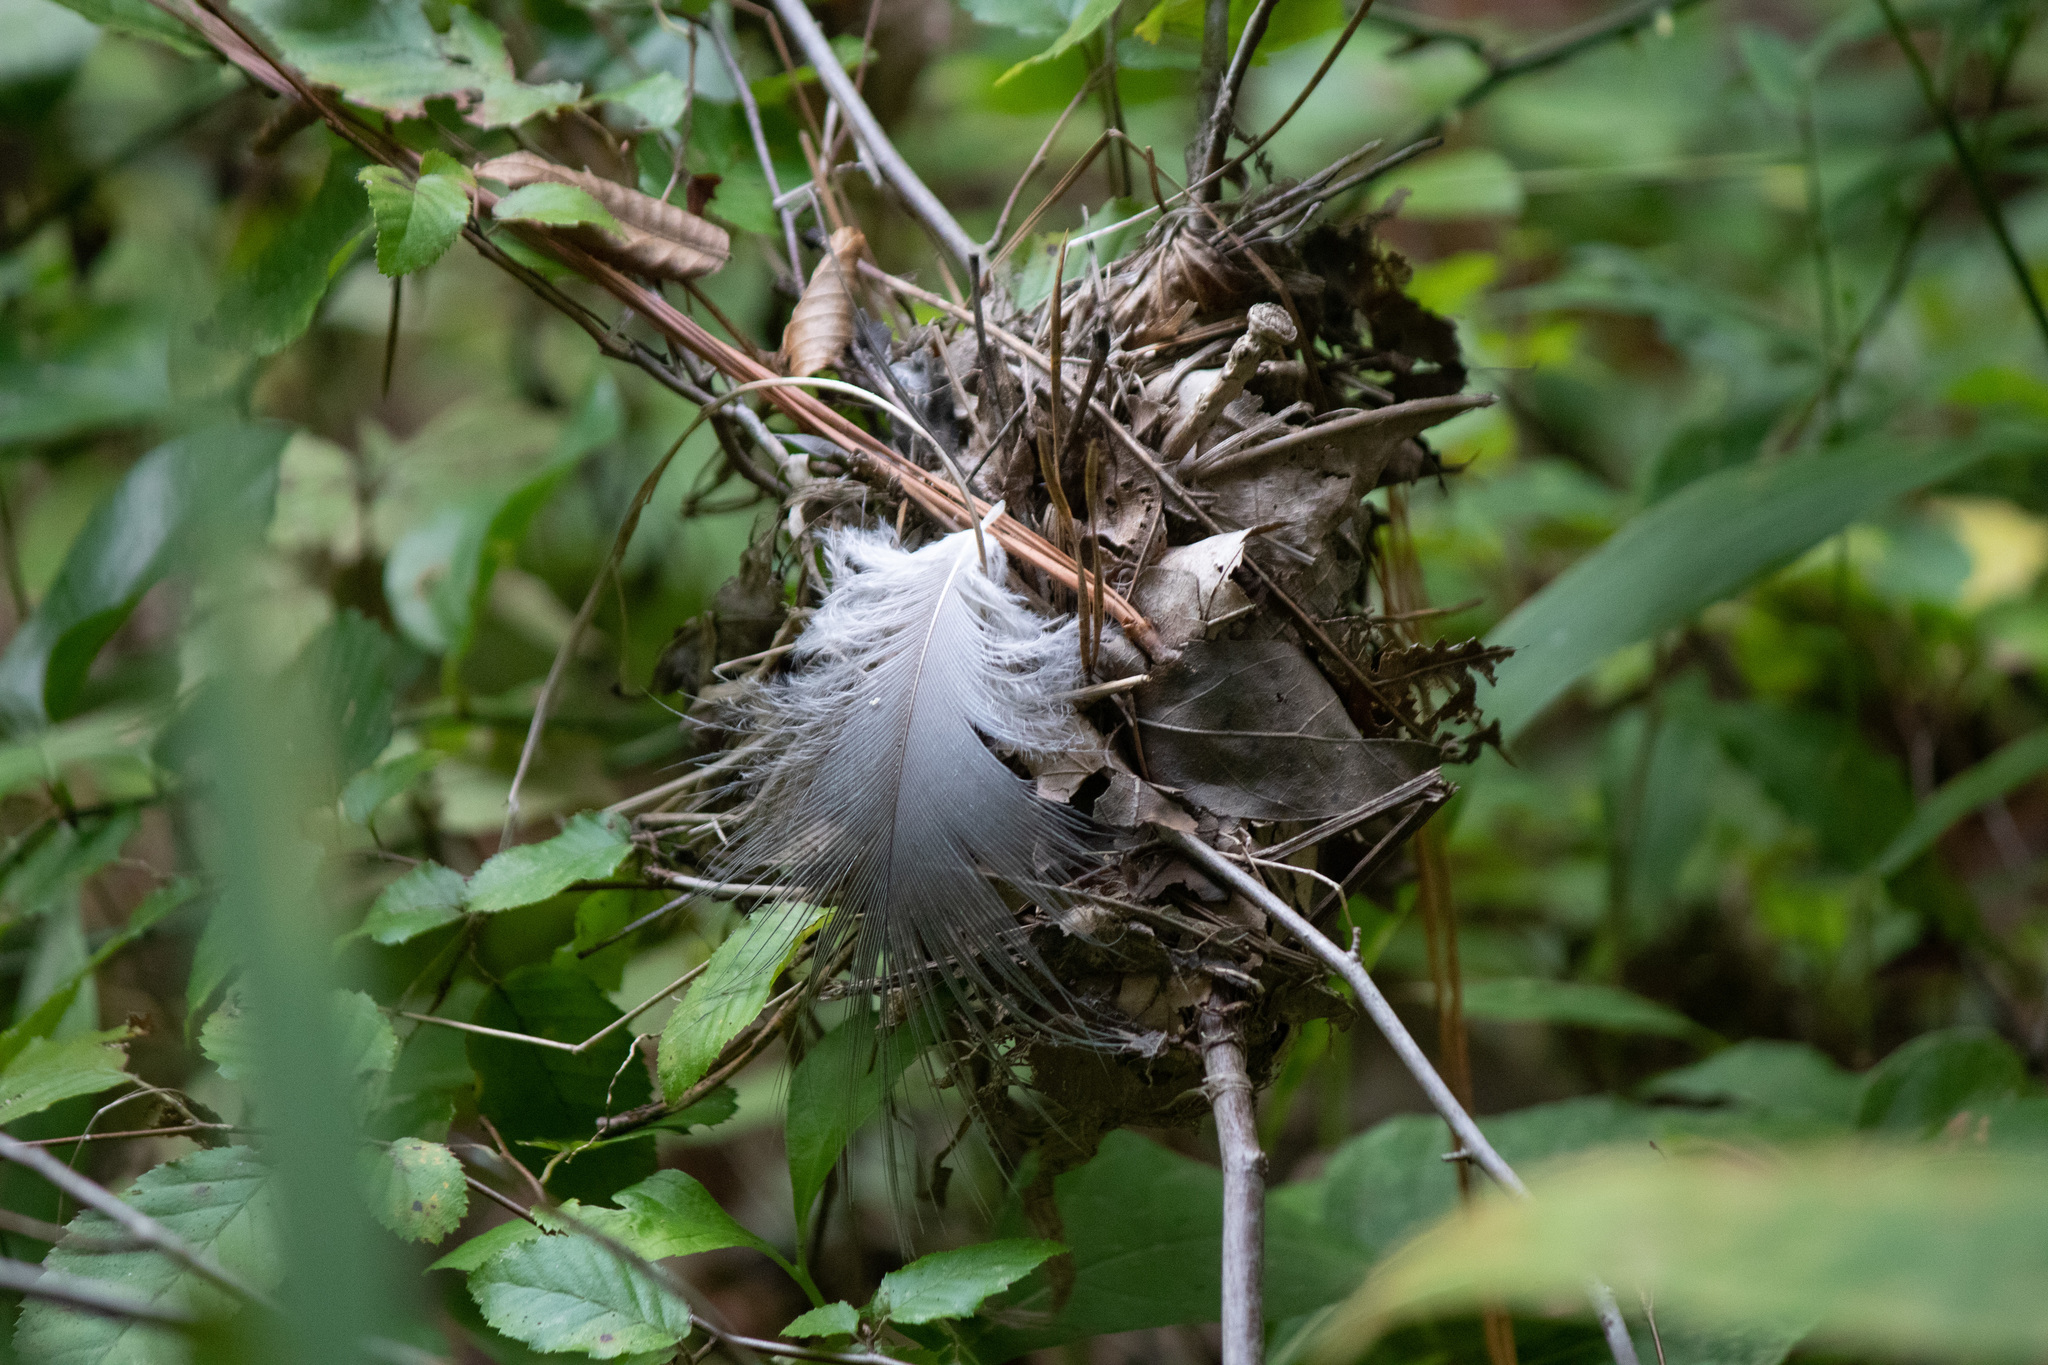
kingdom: Animalia
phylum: Chordata
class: Aves
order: Pelecaniformes
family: Ardeidae
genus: Ardea
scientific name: Ardea herodias
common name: Great blue heron
